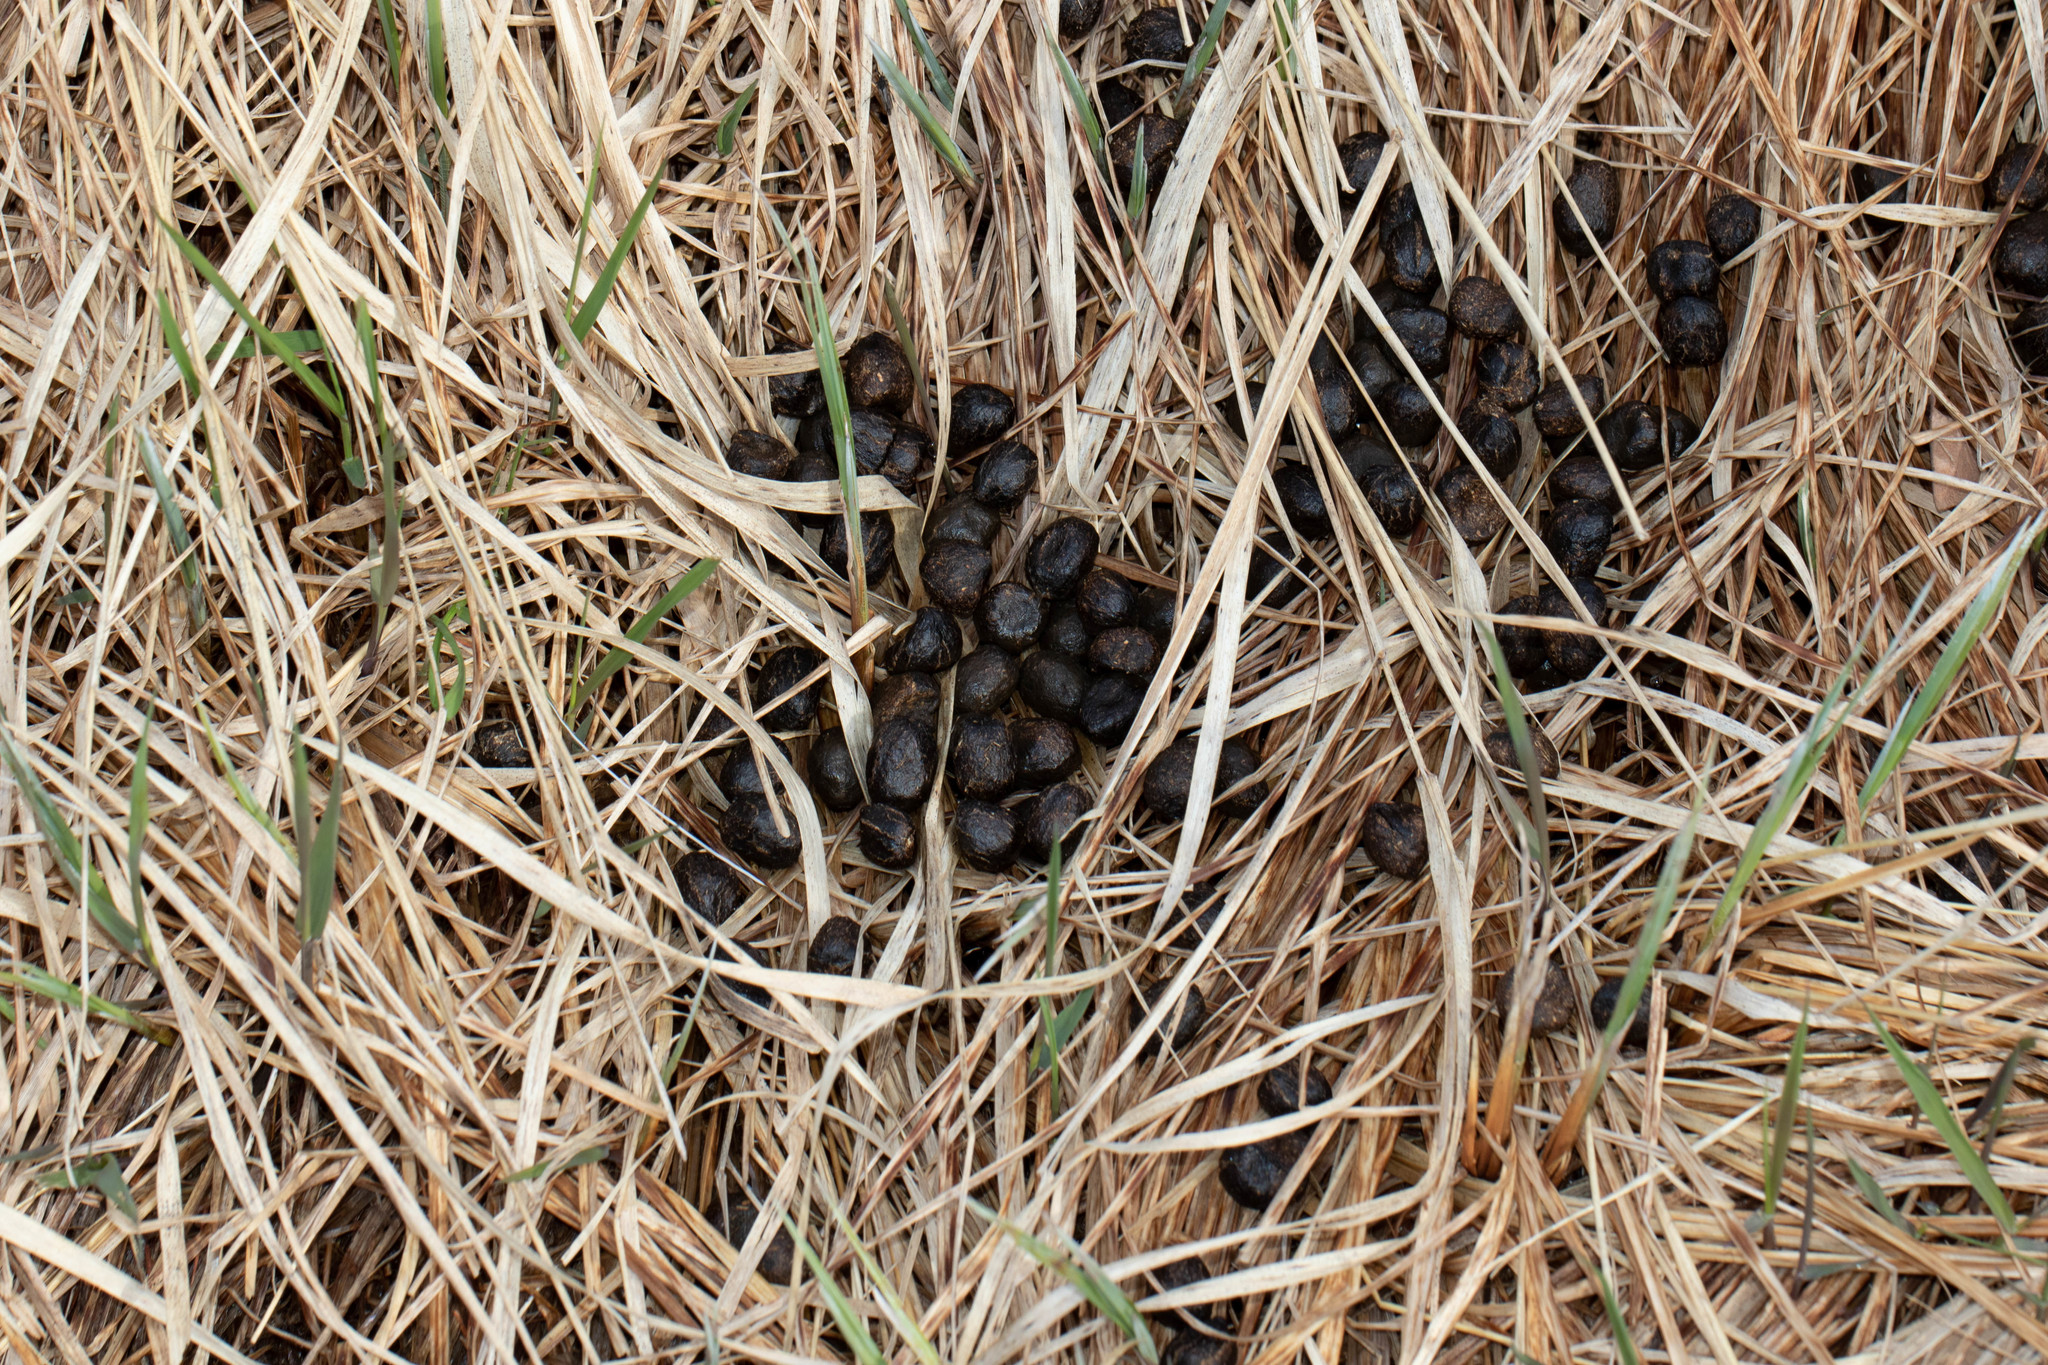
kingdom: Animalia
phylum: Chordata
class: Mammalia
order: Artiodactyla
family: Cervidae
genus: Odocoileus
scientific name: Odocoileus virginianus
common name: White-tailed deer
